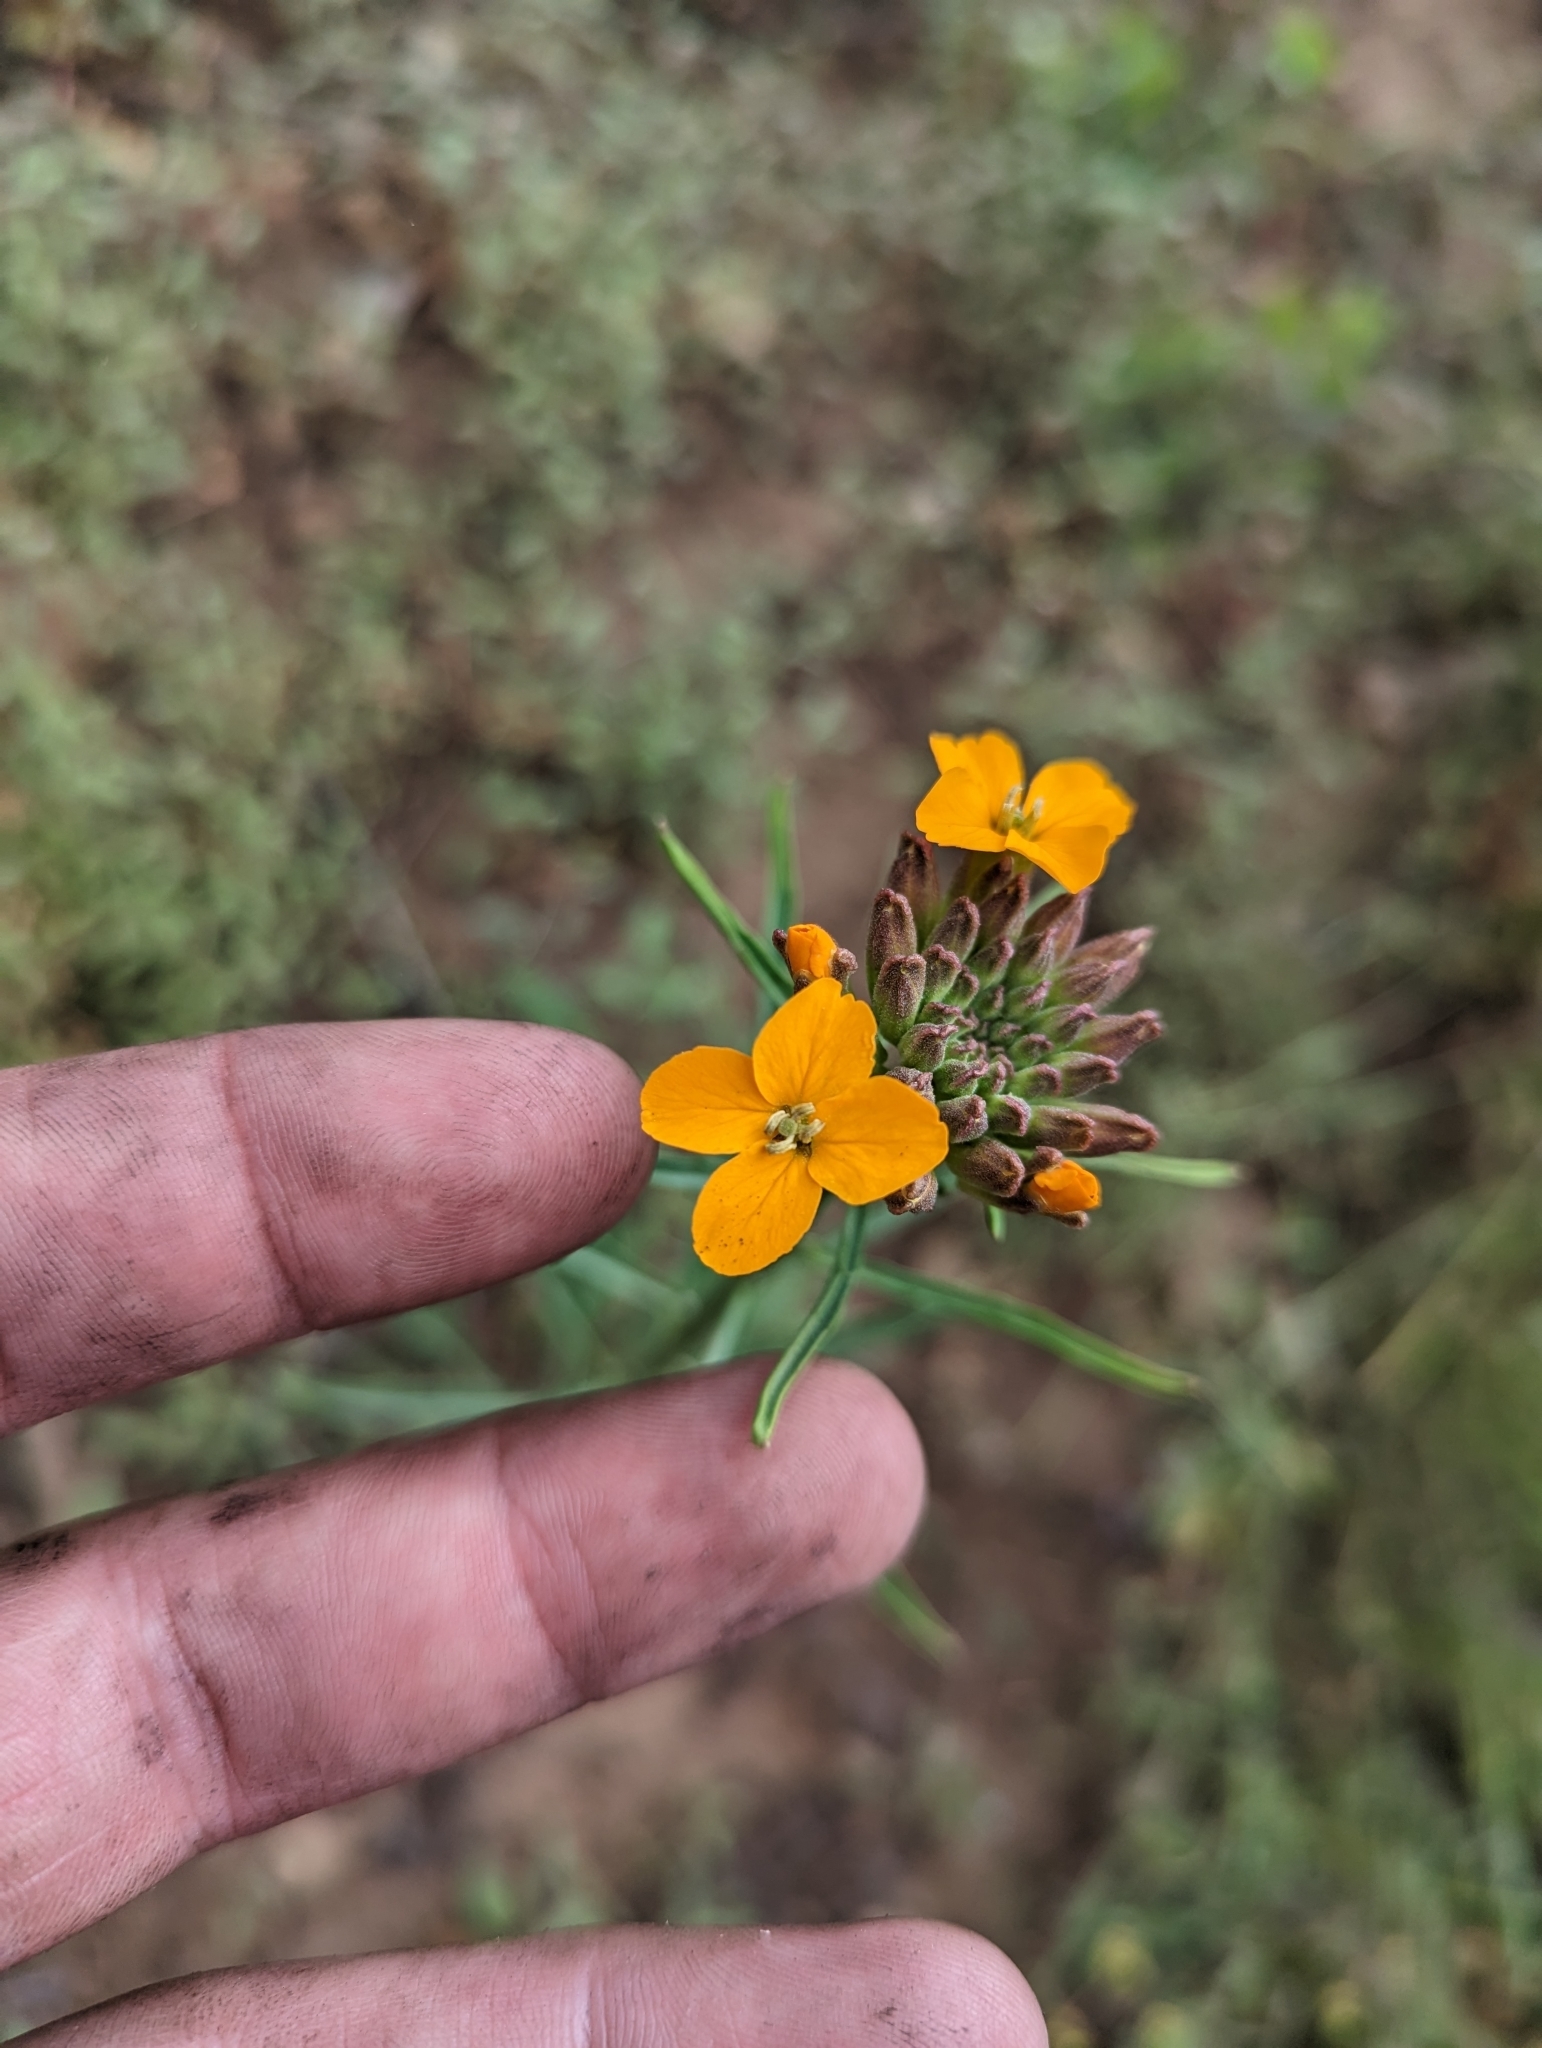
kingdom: Plantae
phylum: Tracheophyta
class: Magnoliopsida
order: Brassicales
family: Brassicaceae
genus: Erysimum
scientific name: Erysimum capitatum
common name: Western wallflower
